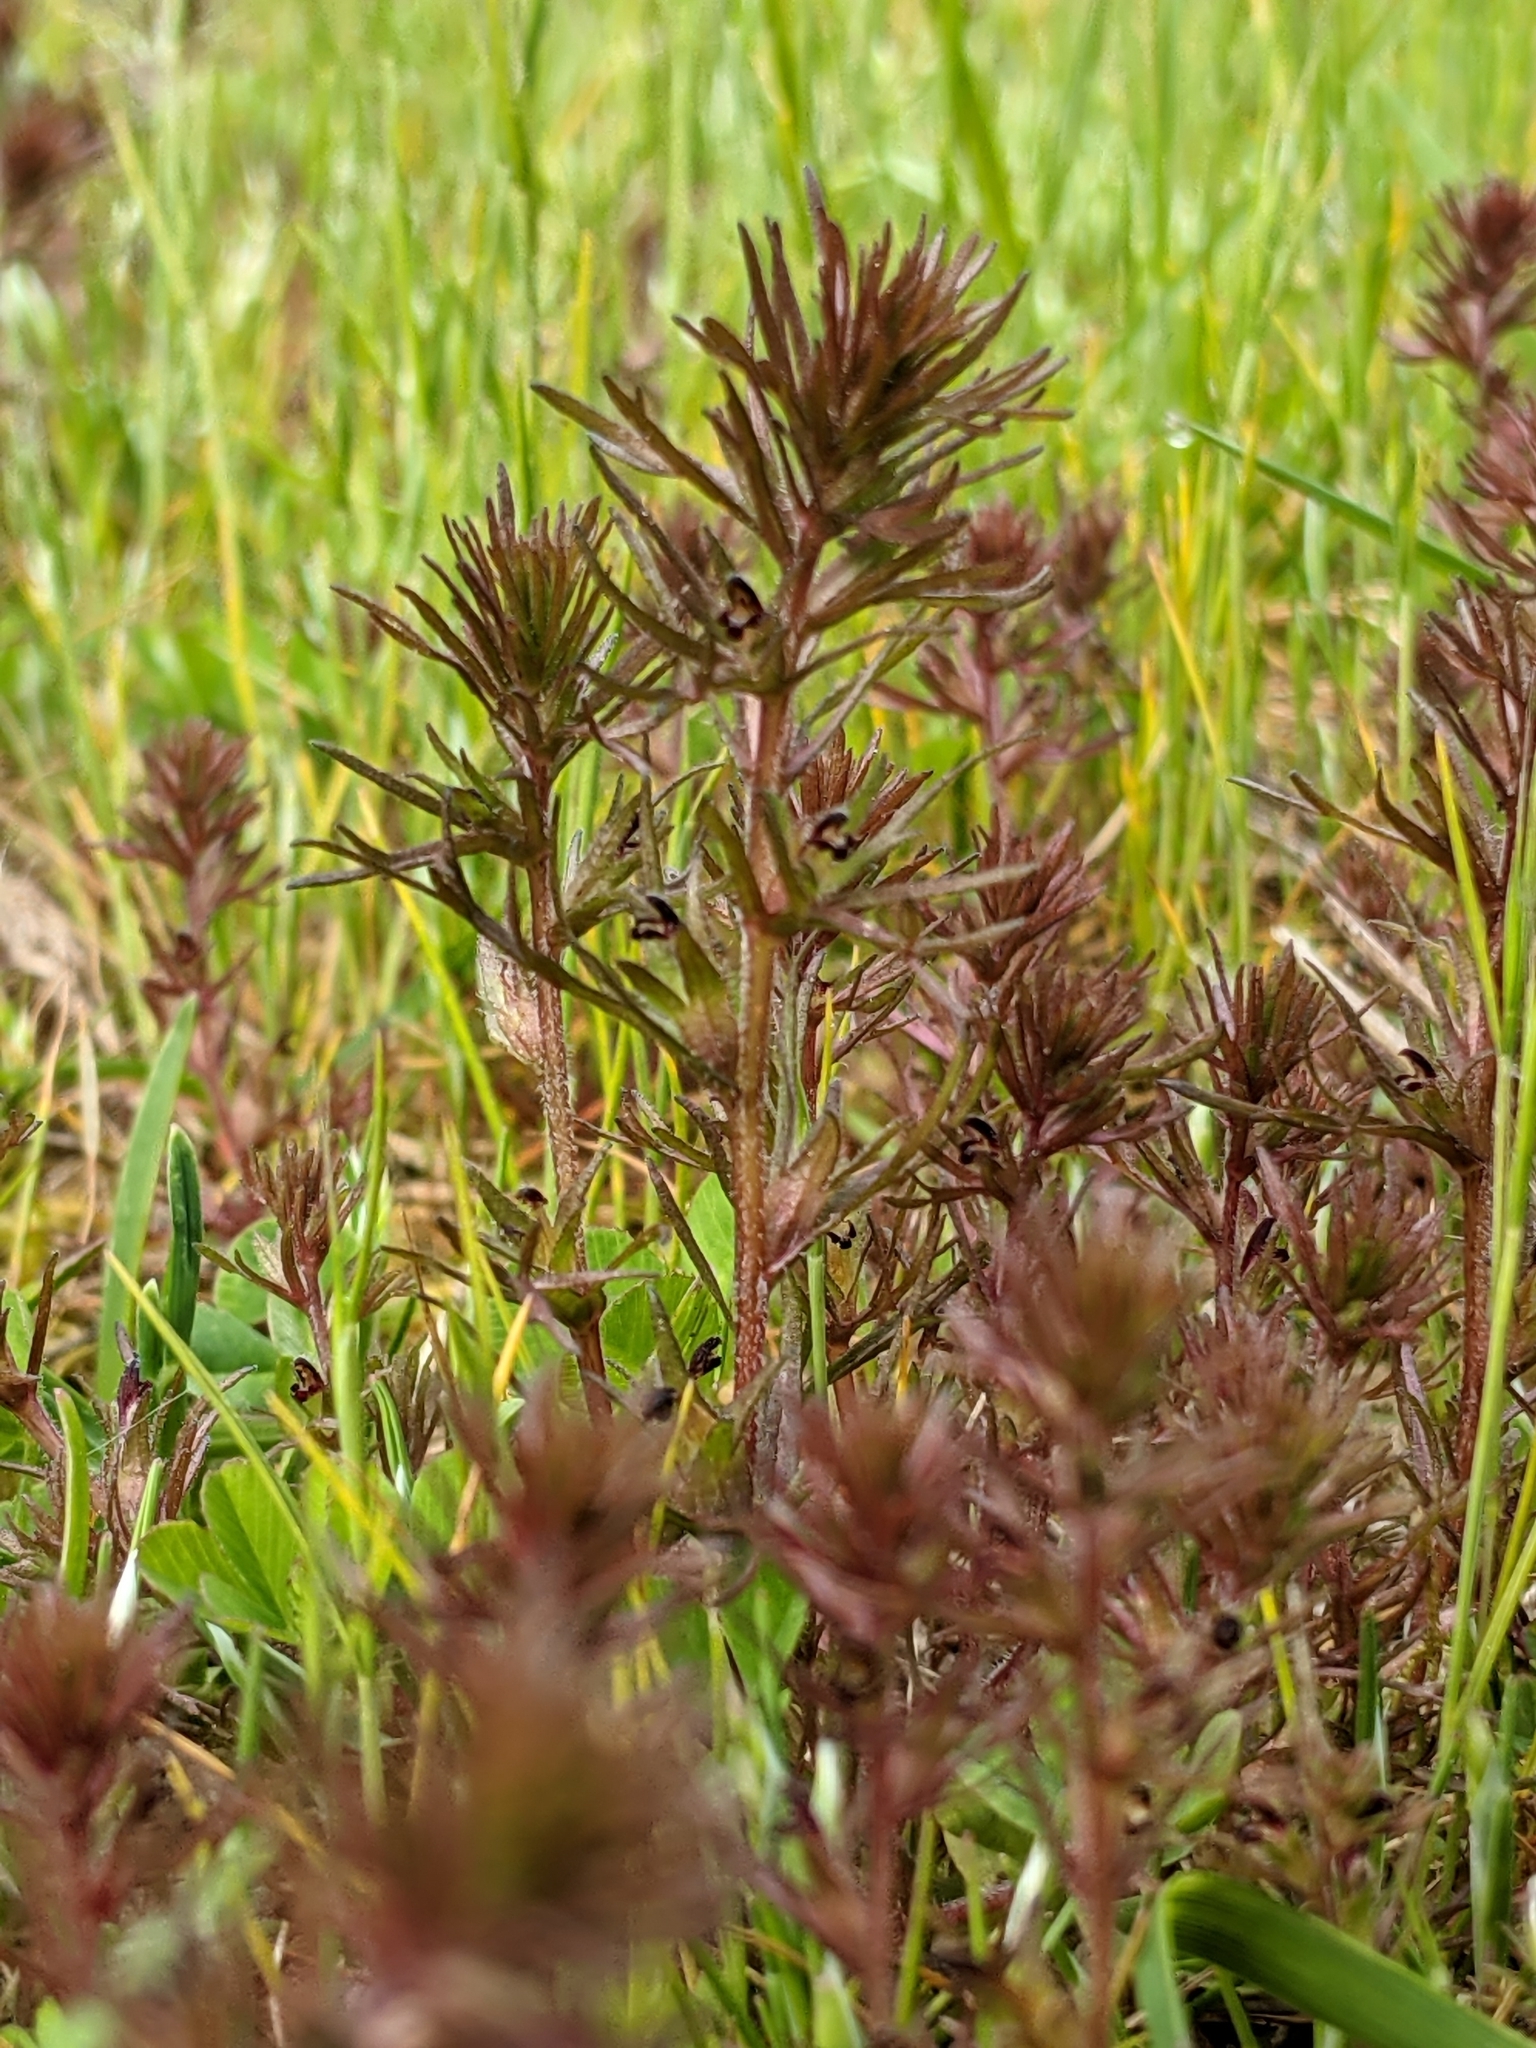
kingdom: Plantae
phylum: Tracheophyta
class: Magnoliopsida
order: Lamiales
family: Orobanchaceae
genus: Triphysaria
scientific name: Triphysaria pusilla
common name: Dwarf false owl-clover
